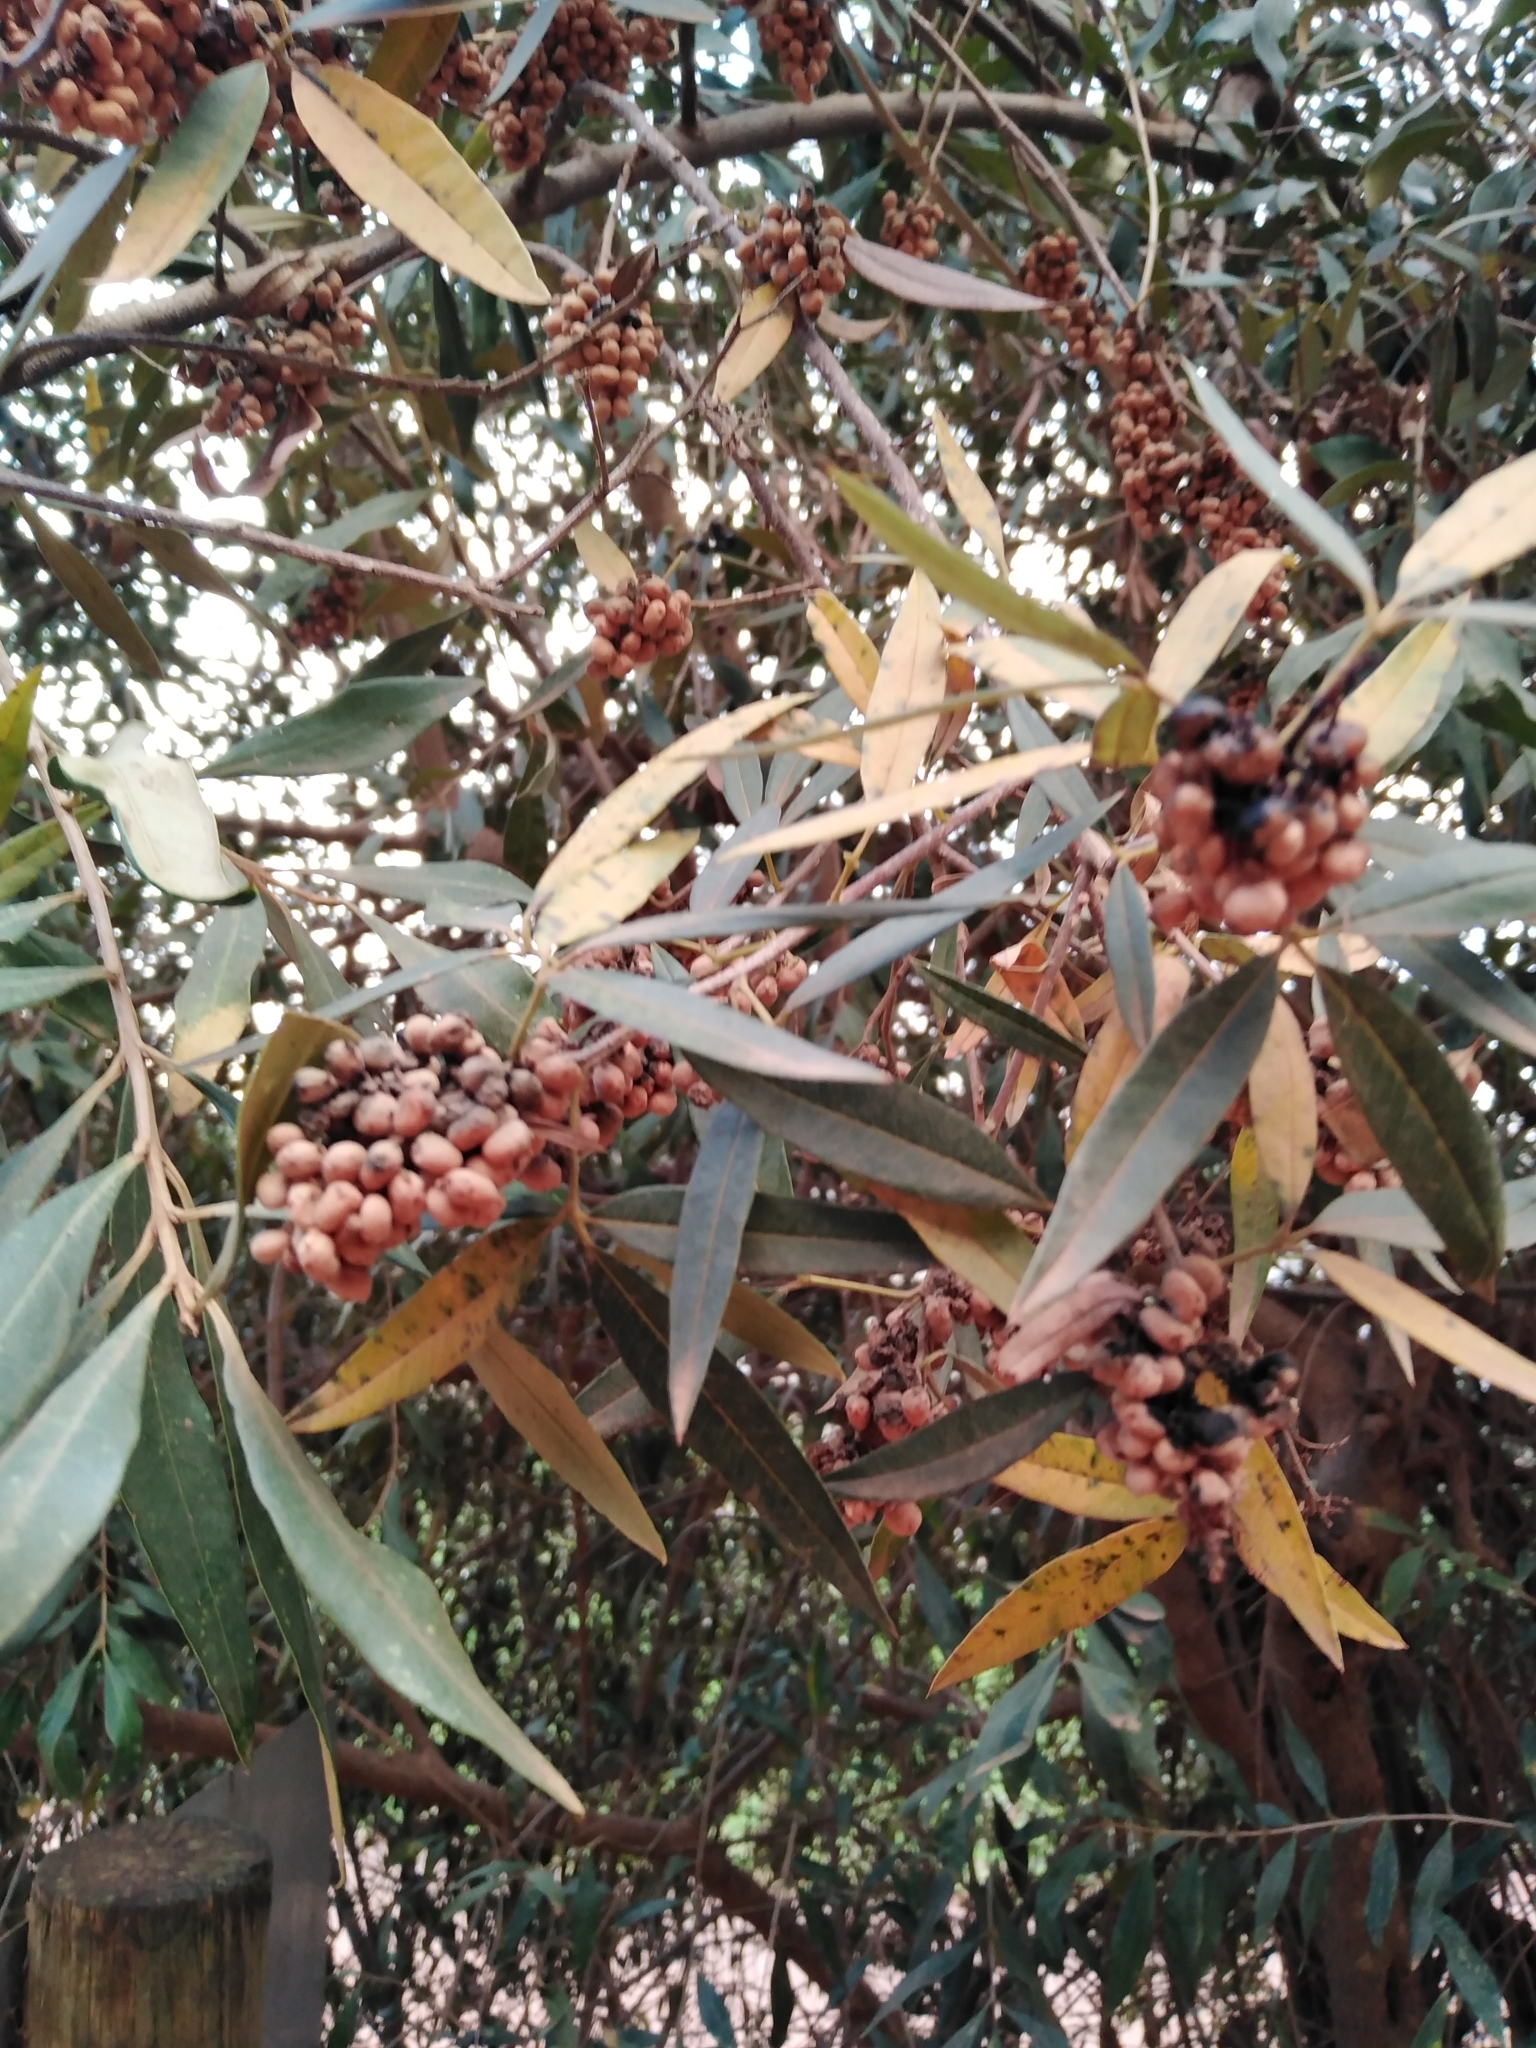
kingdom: Plantae
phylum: Tracheophyta
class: Magnoliopsida
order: Sapindales
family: Anacardiaceae
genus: Searsia
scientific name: Searsia angustifolia
